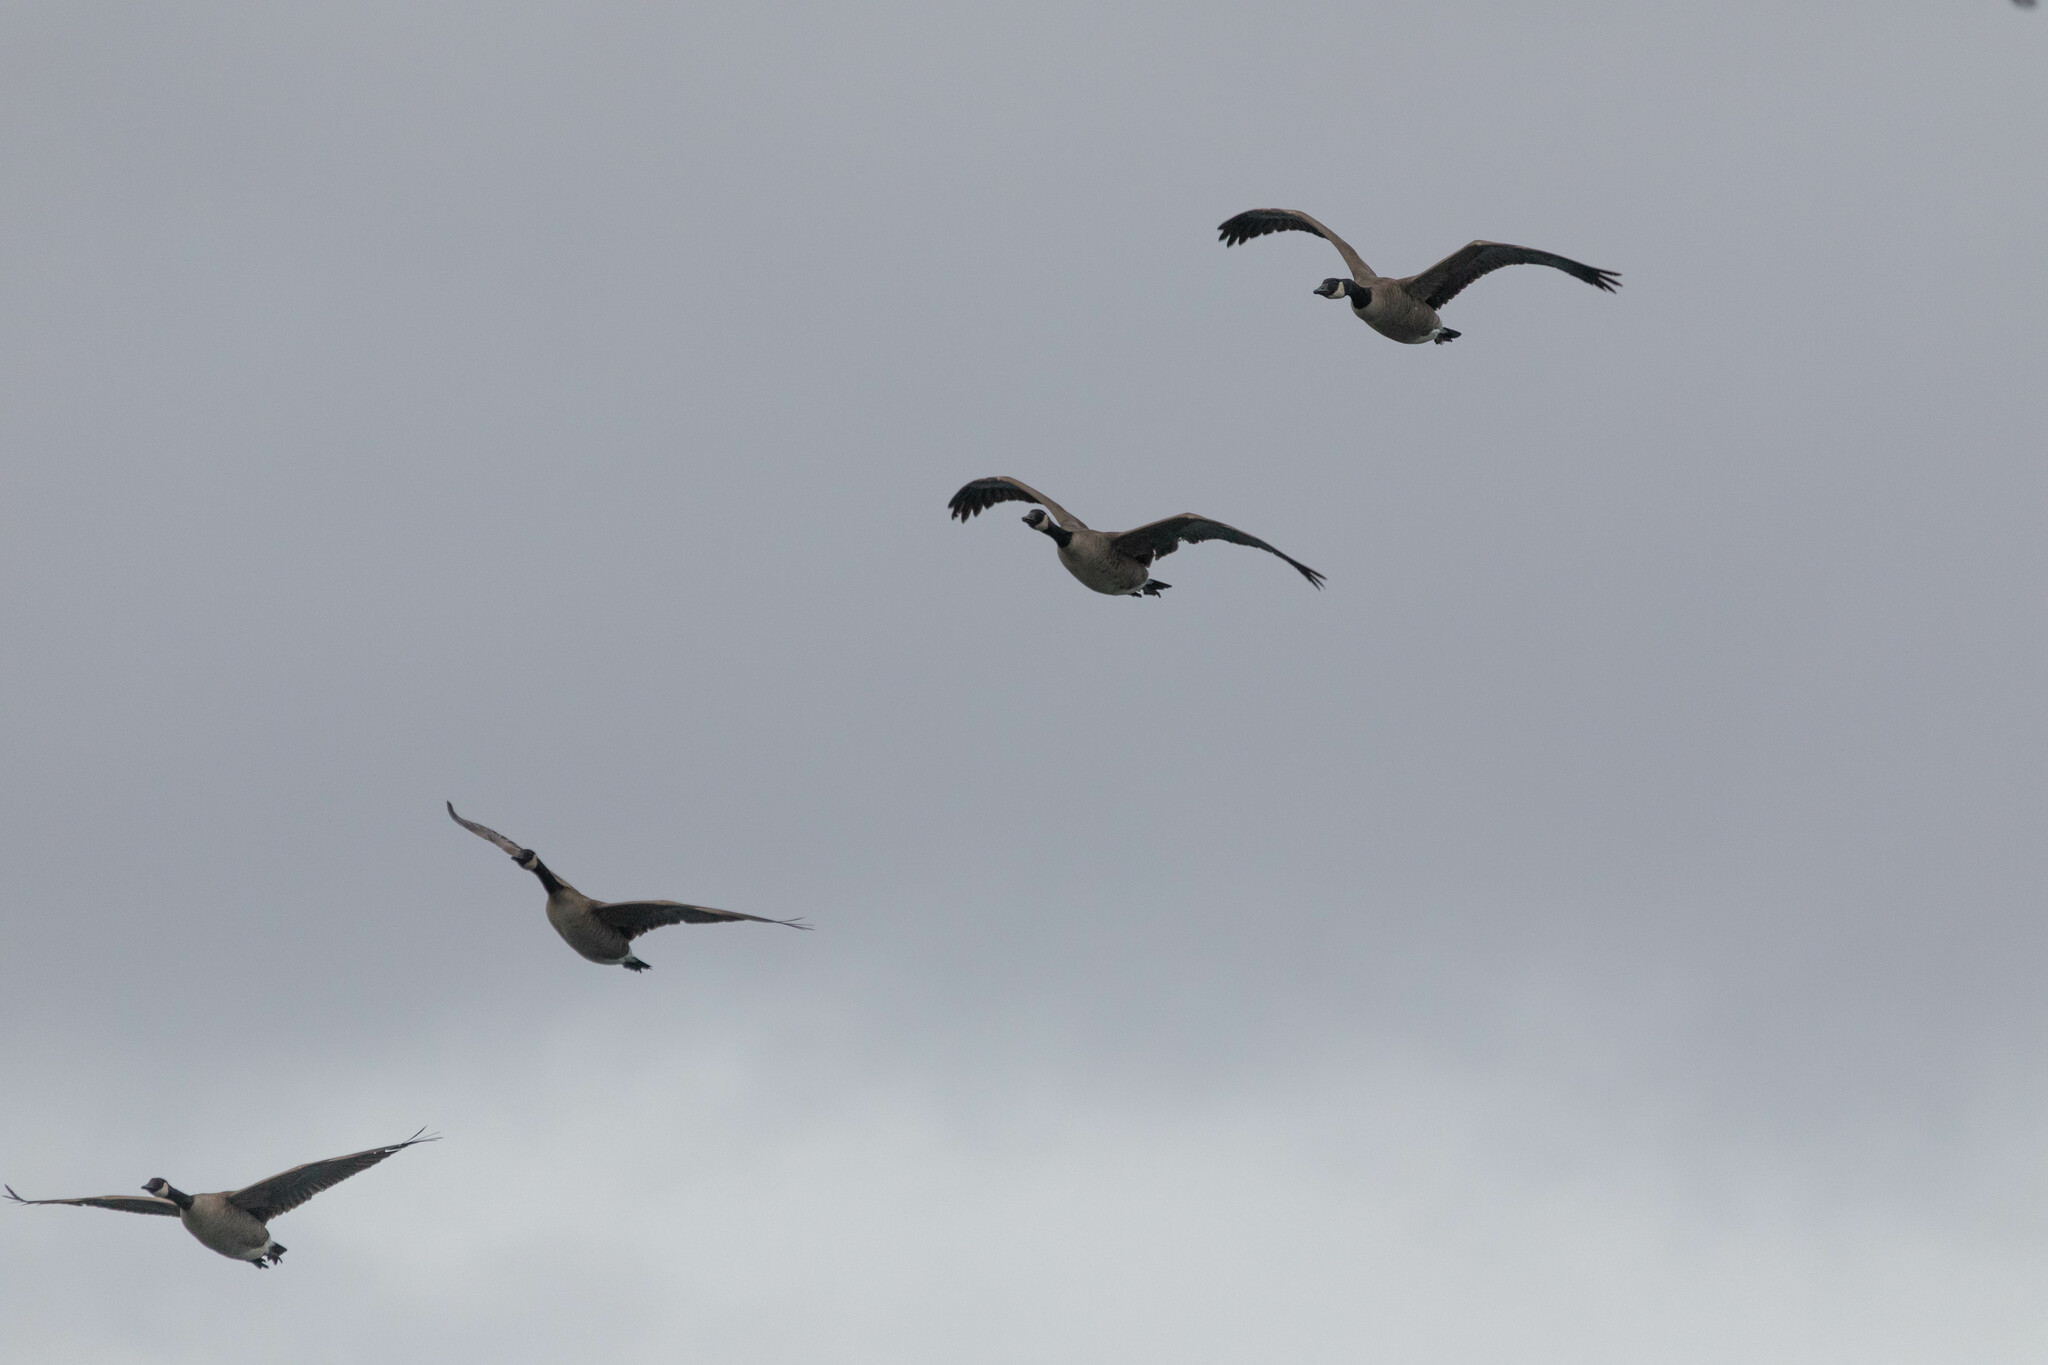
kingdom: Animalia
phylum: Chordata
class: Aves
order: Anseriformes
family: Anatidae
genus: Branta
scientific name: Branta canadensis
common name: Canada goose
